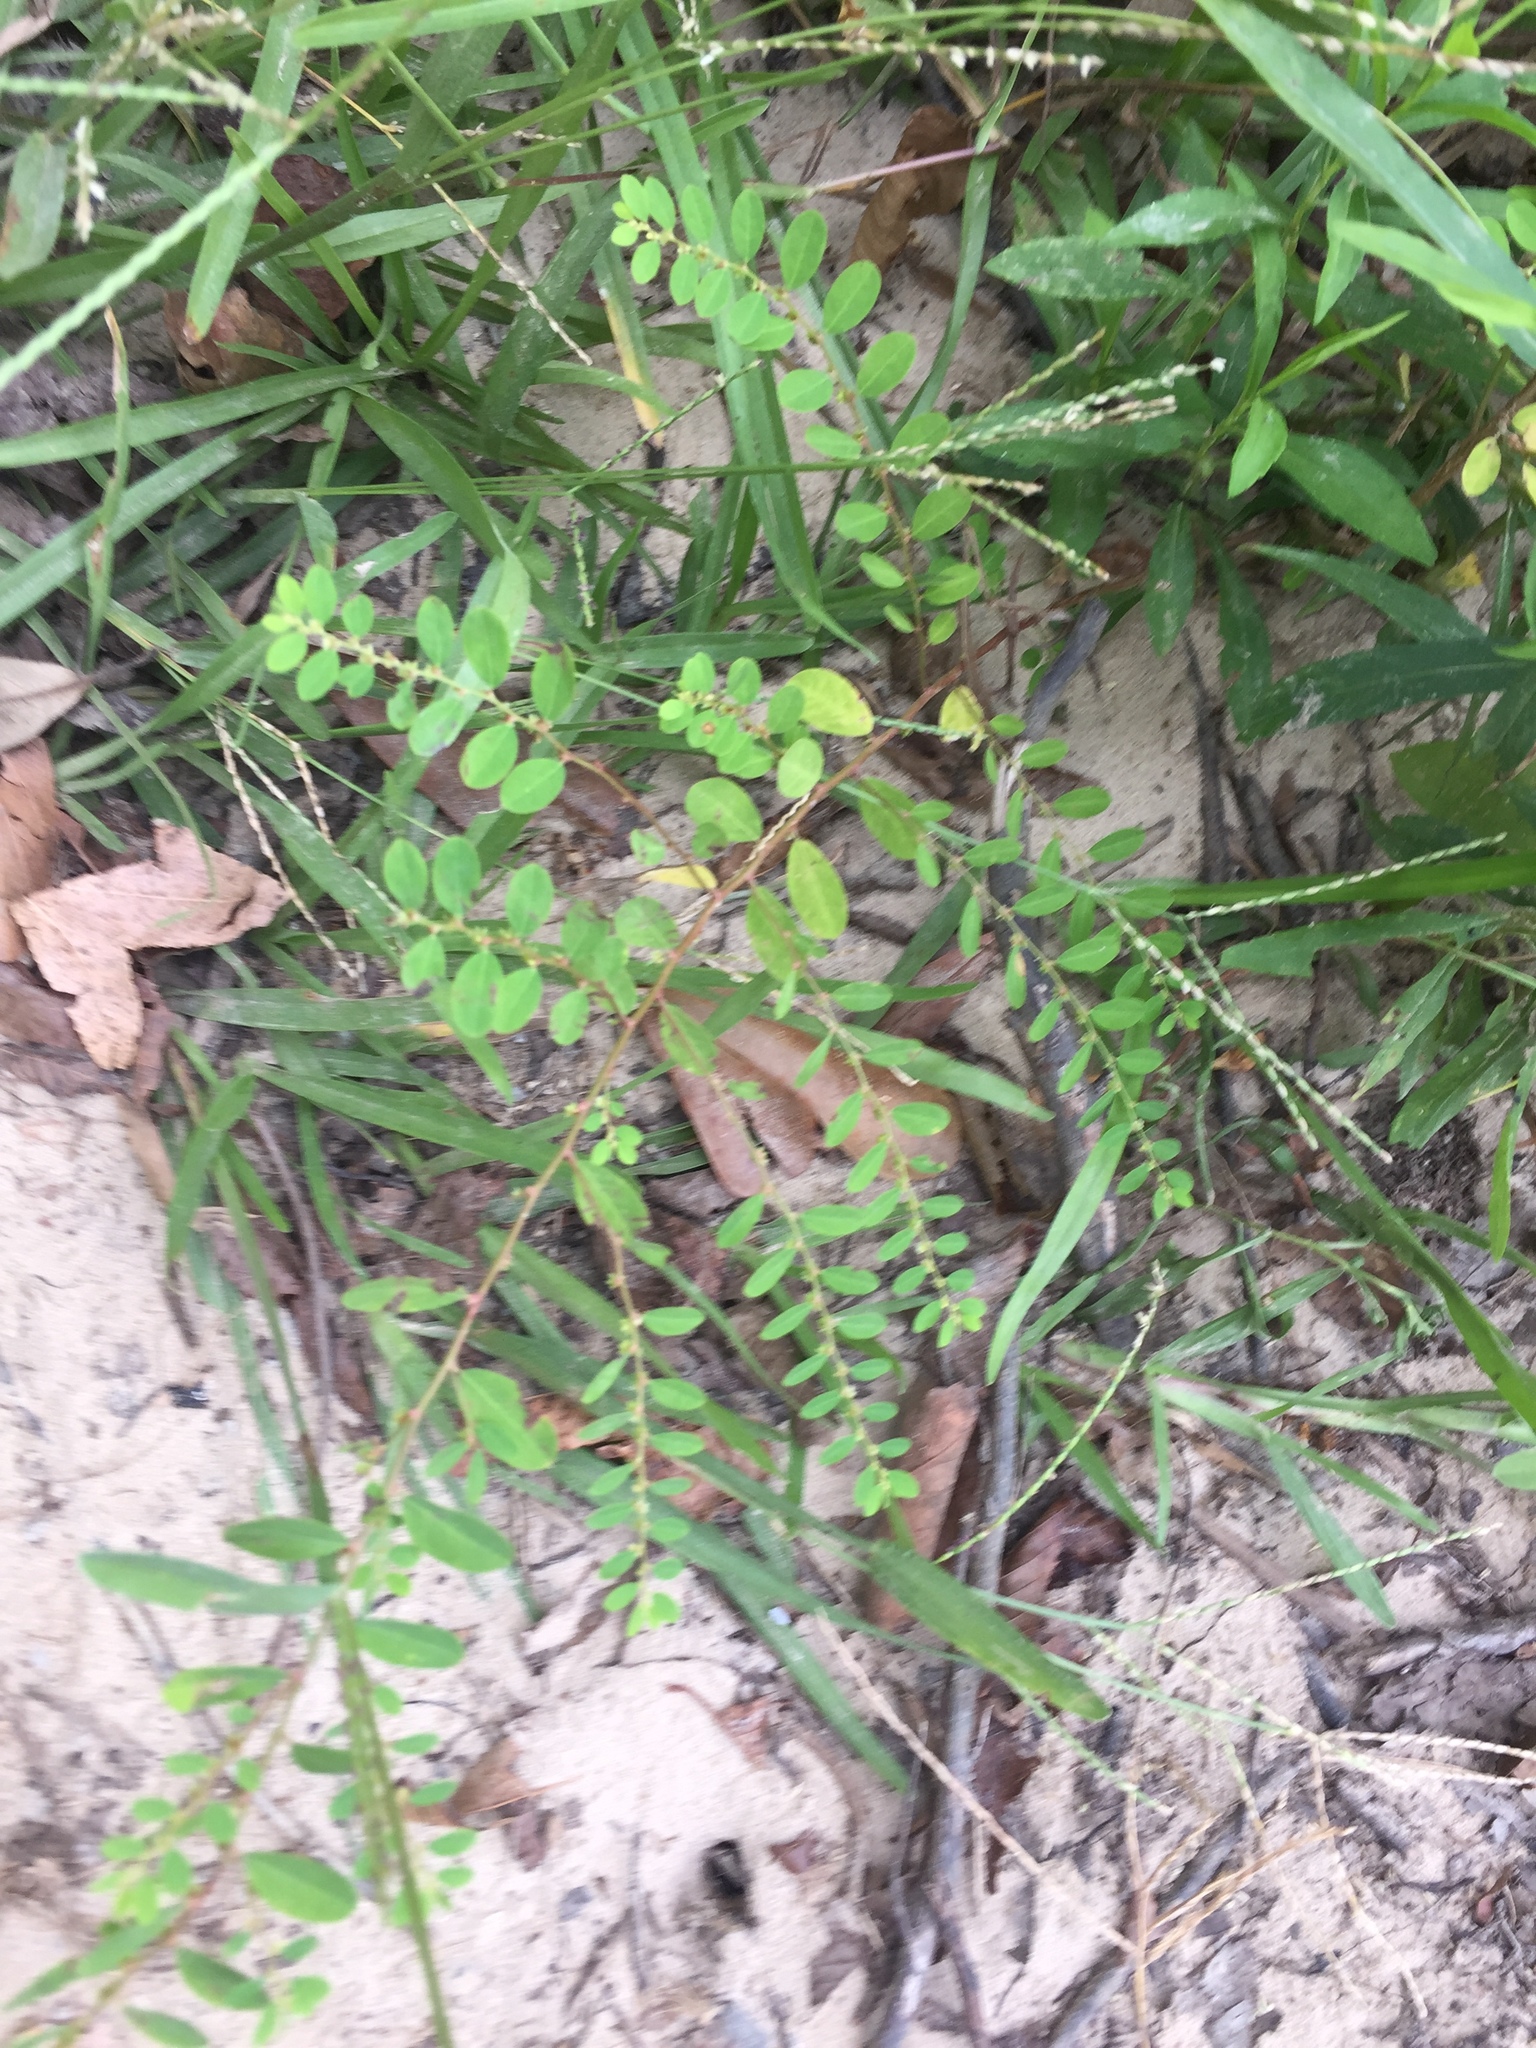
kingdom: Plantae
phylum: Tracheophyta
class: Magnoliopsida
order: Malpighiales
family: Phyllanthaceae
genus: Phyllanthus
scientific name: Phyllanthus caroliniensis
